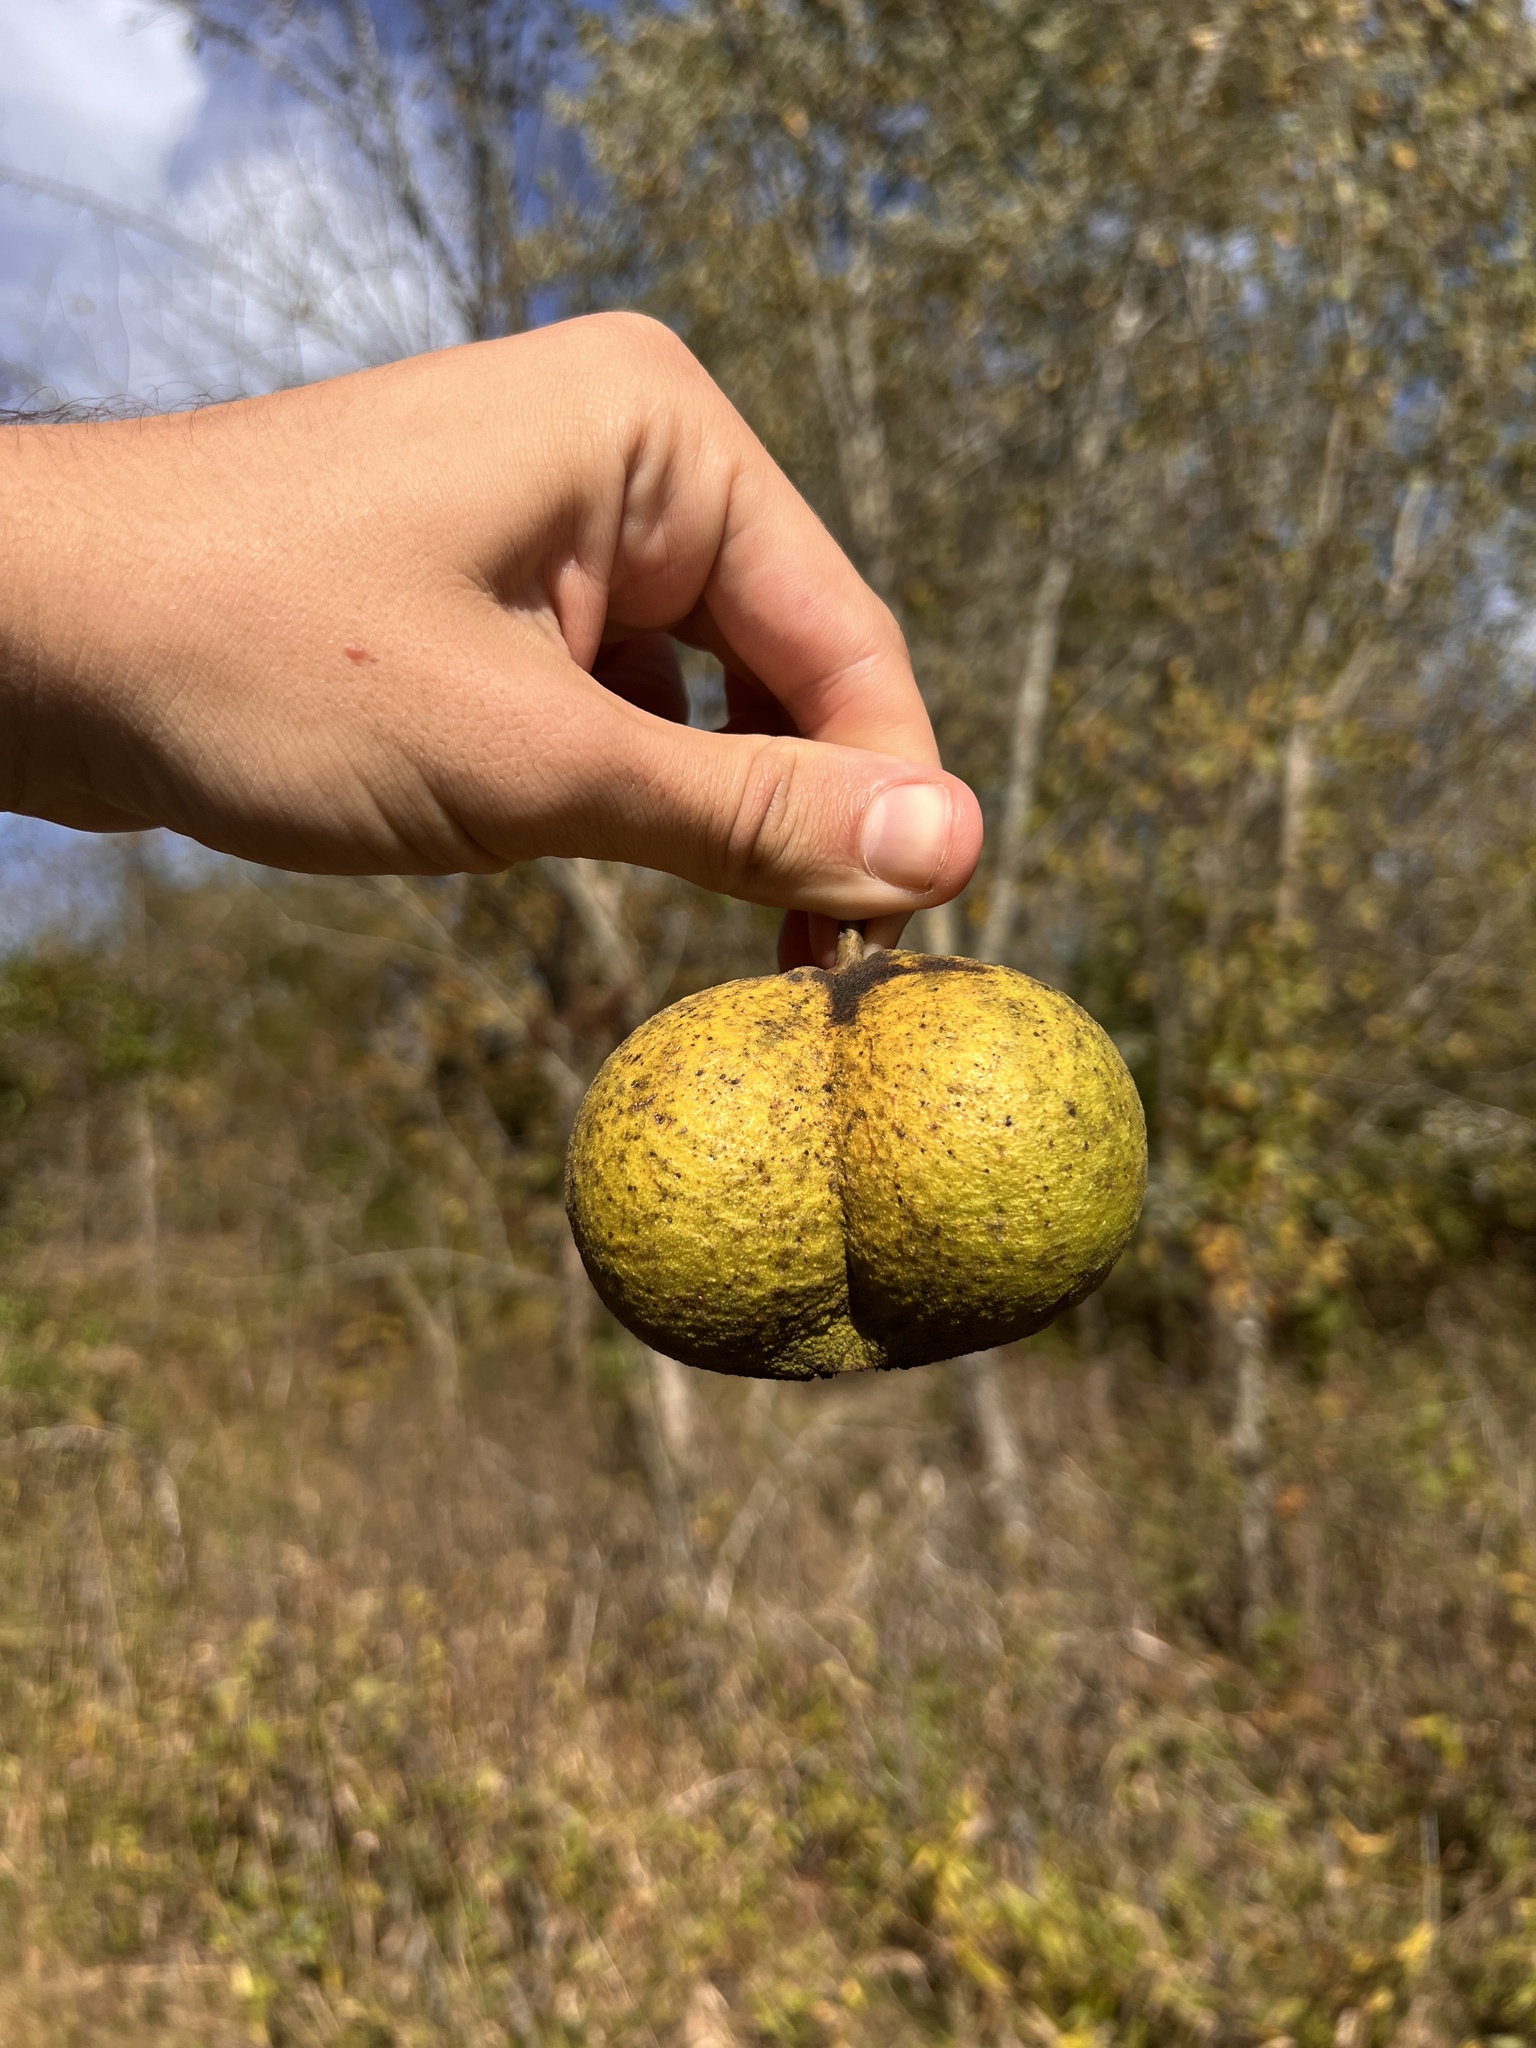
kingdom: Plantae
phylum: Tracheophyta
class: Magnoliopsida
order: Fagales
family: Juglandaceae
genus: Juglans
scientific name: Juglans nigra
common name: Black walnut
